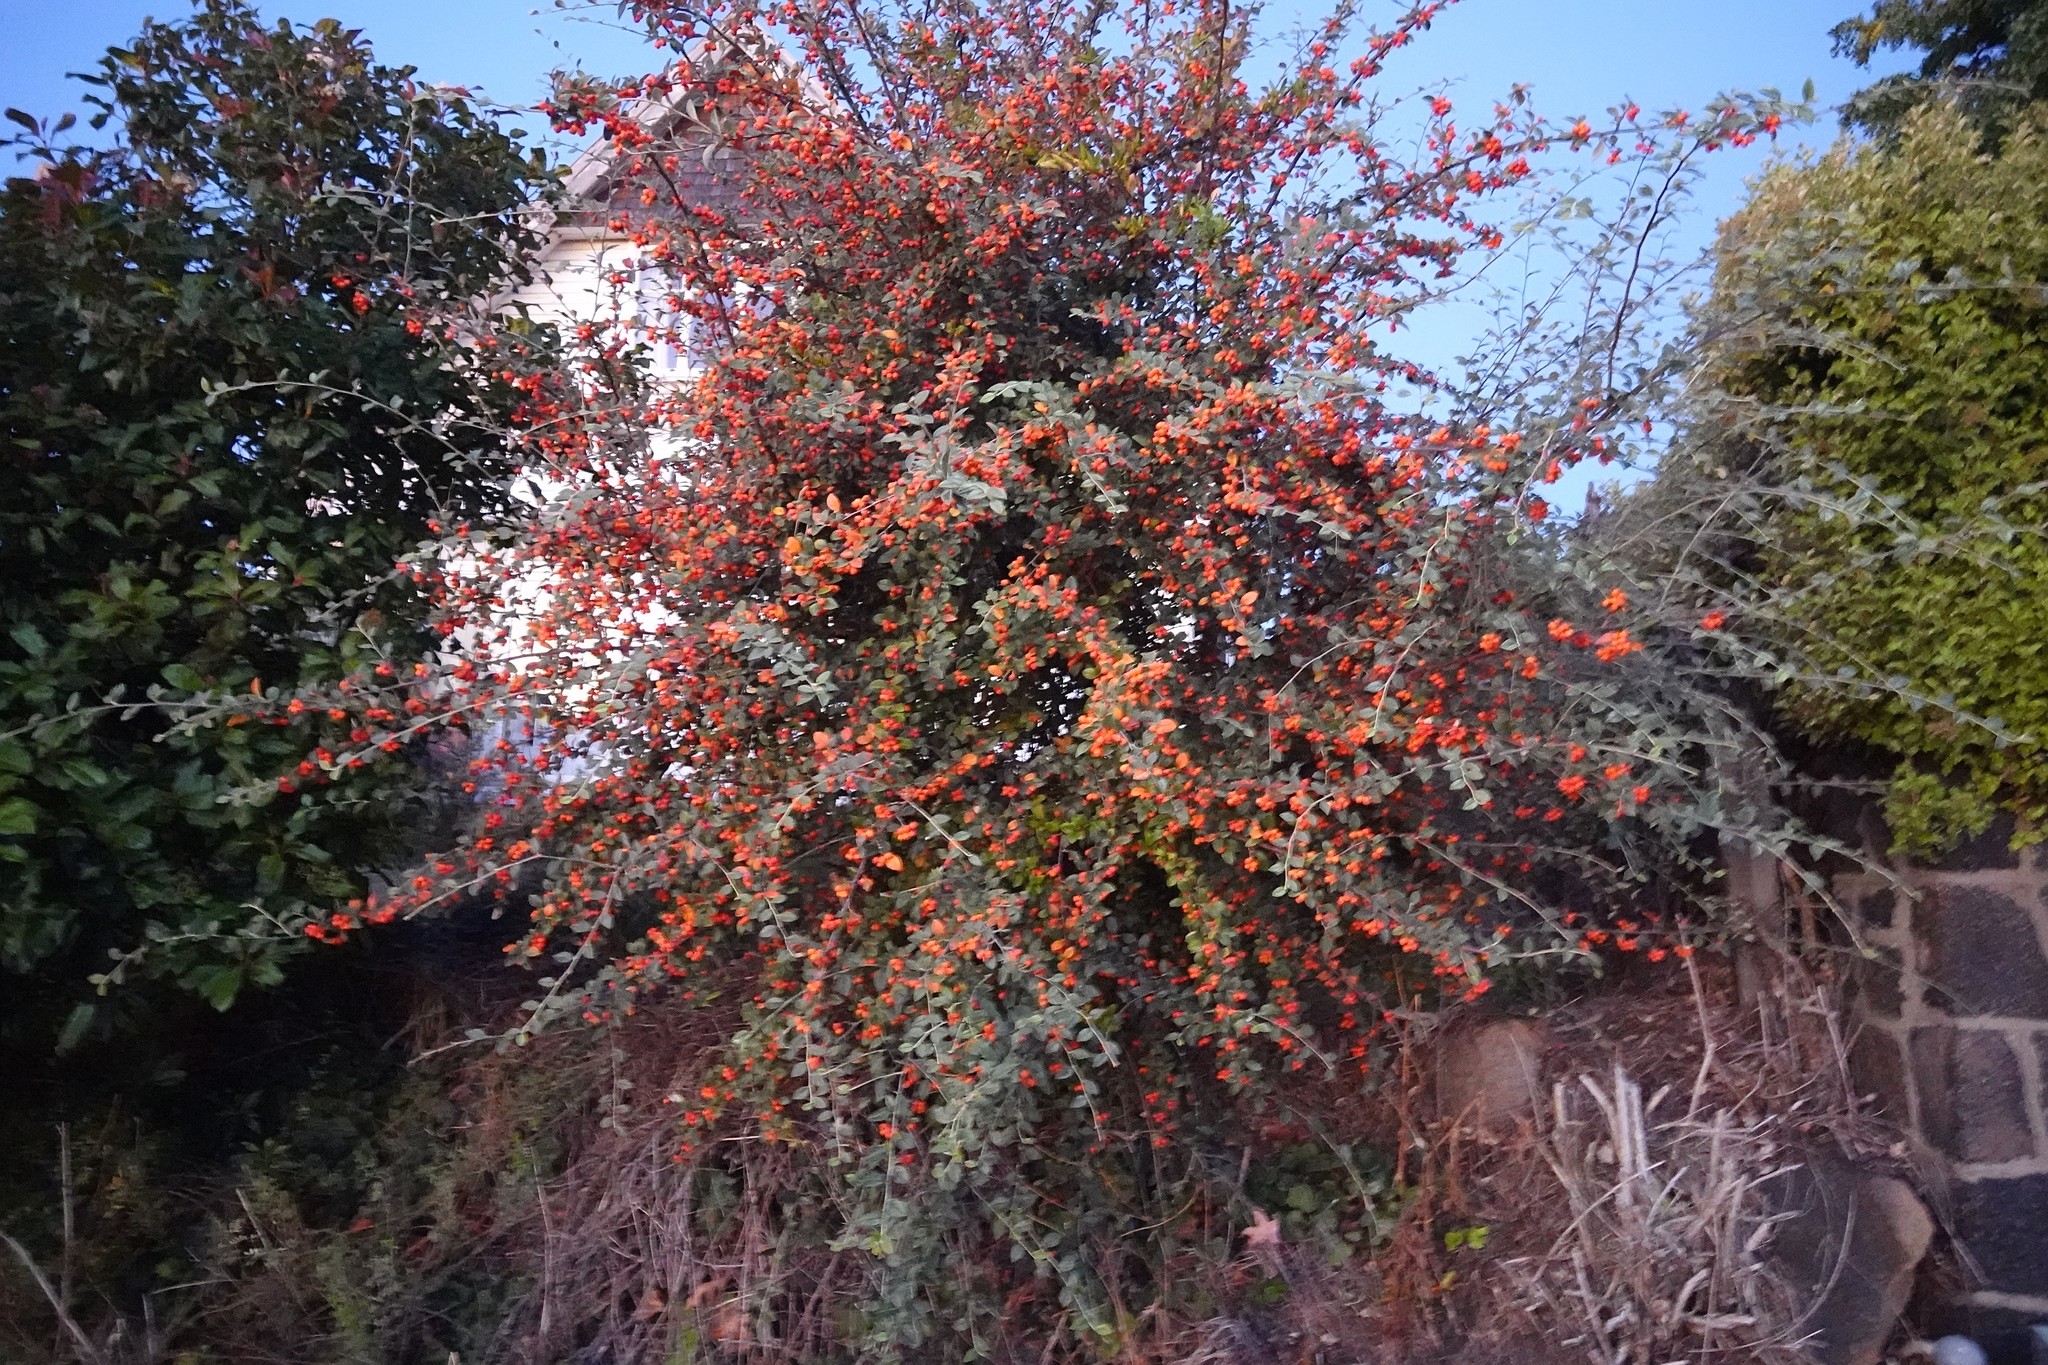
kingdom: Plantae
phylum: Tracheophyta
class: Magnoliopsida
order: Rosales
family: Rosaceae
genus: Cotoneaster
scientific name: Cotoneaster franchetii
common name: Franchet's cotoneaster
